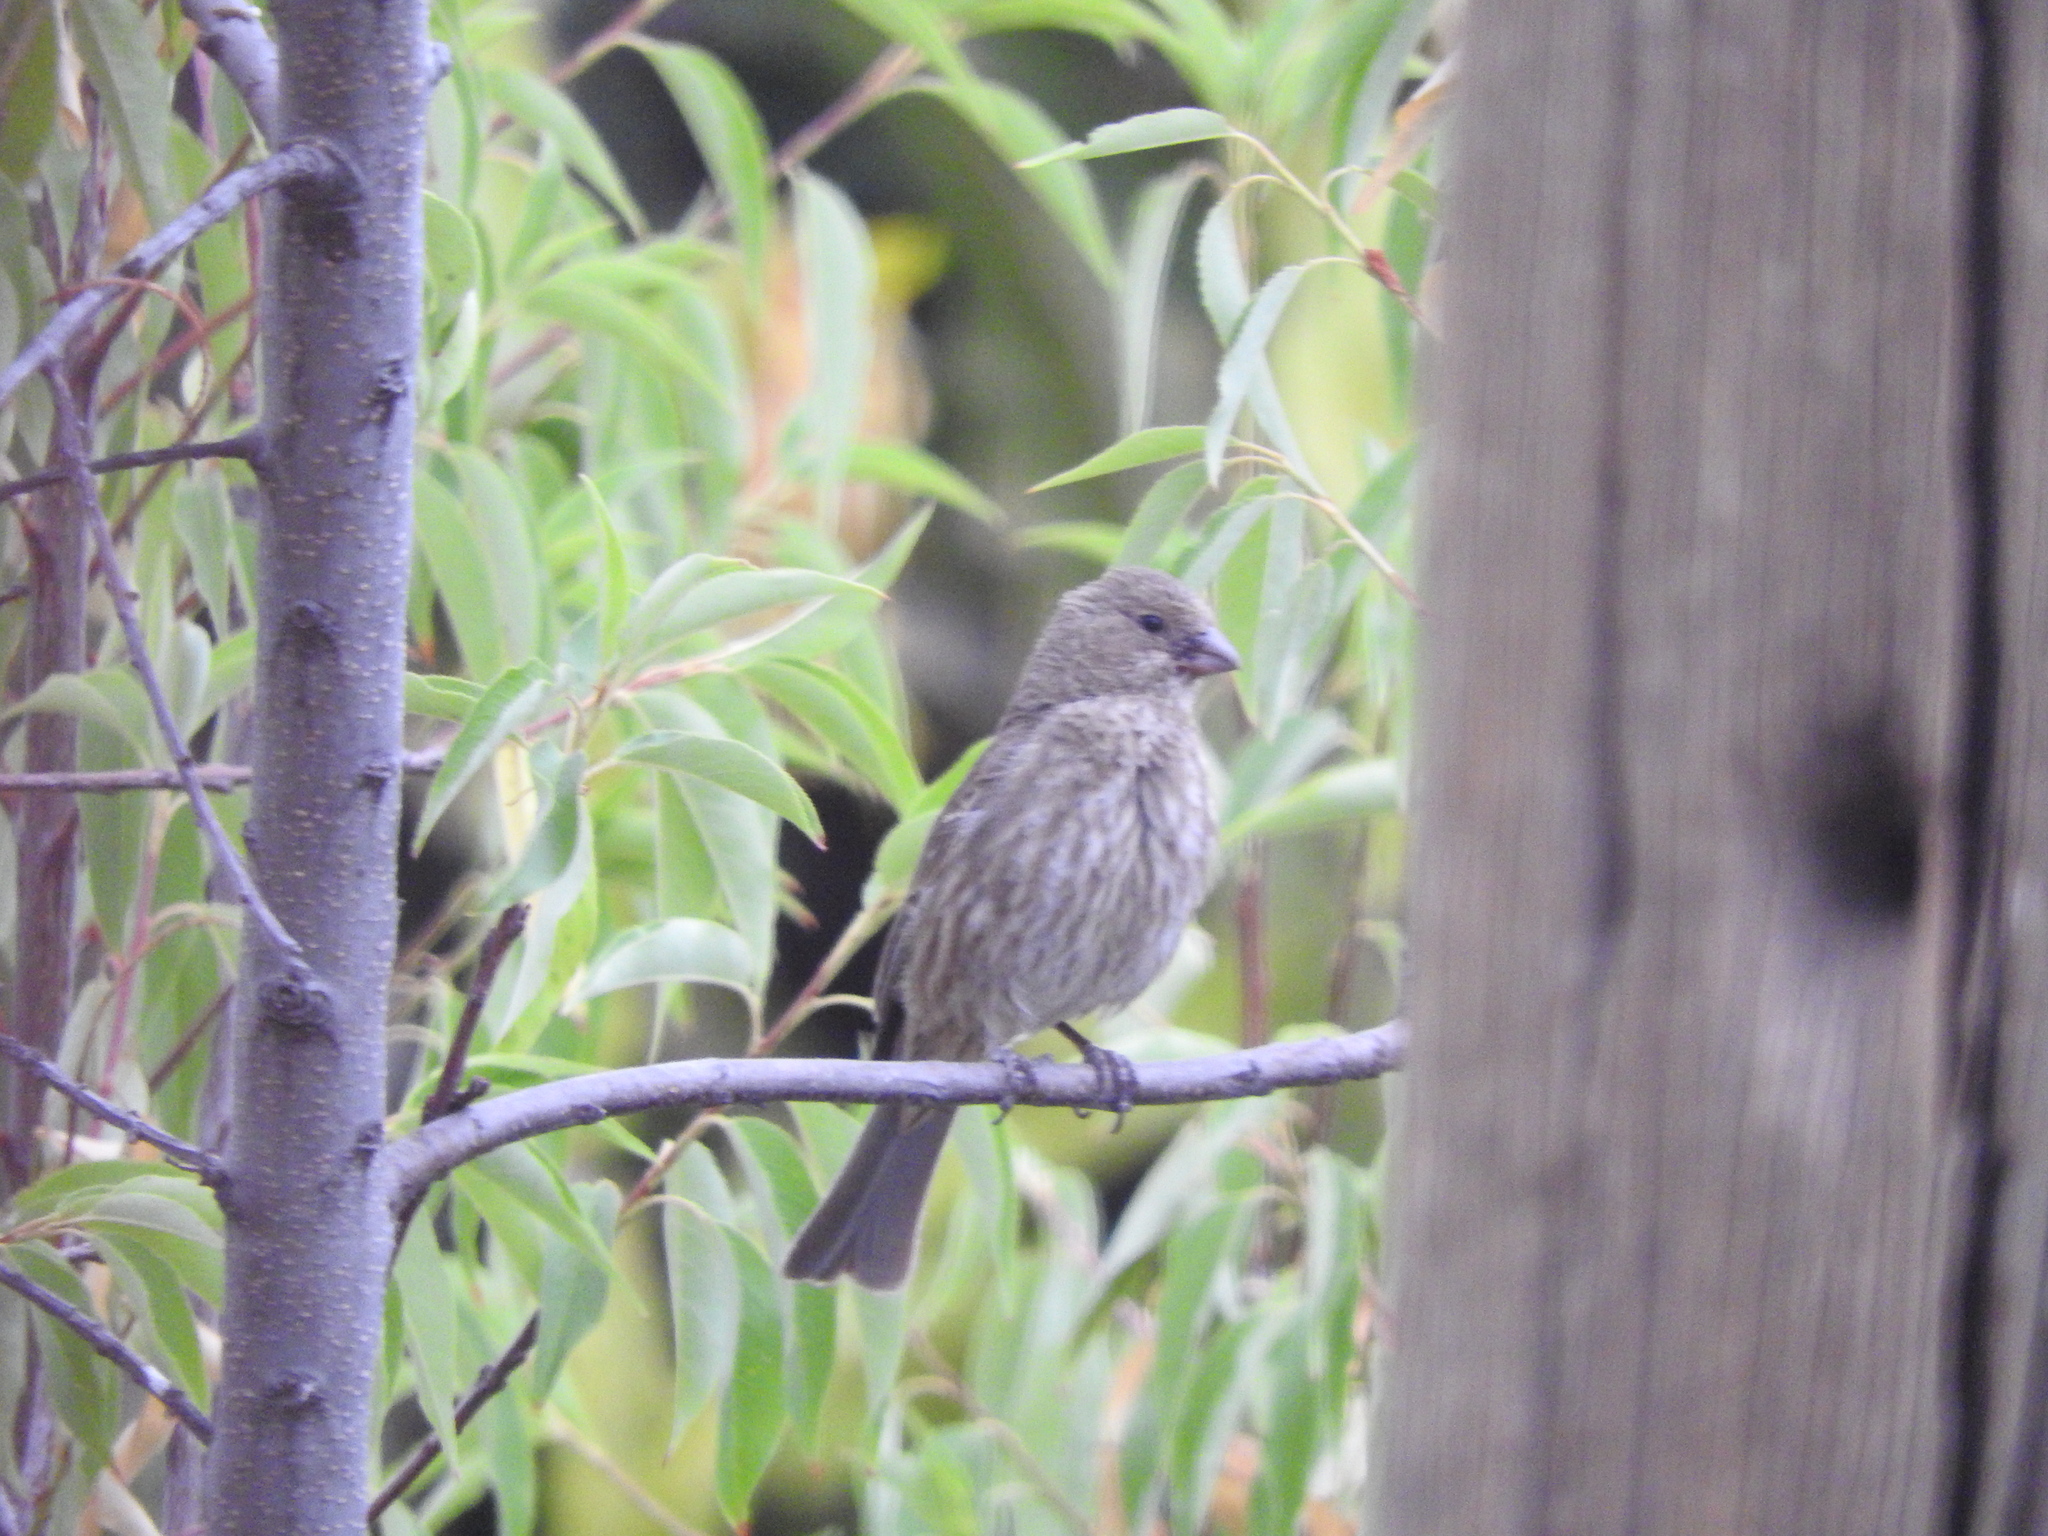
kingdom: Animalia
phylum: Chordata
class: Aves
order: Passeriformes
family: Fringillidae
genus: Haemorhous
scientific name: Haemorhous mexicanus
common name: House finch
